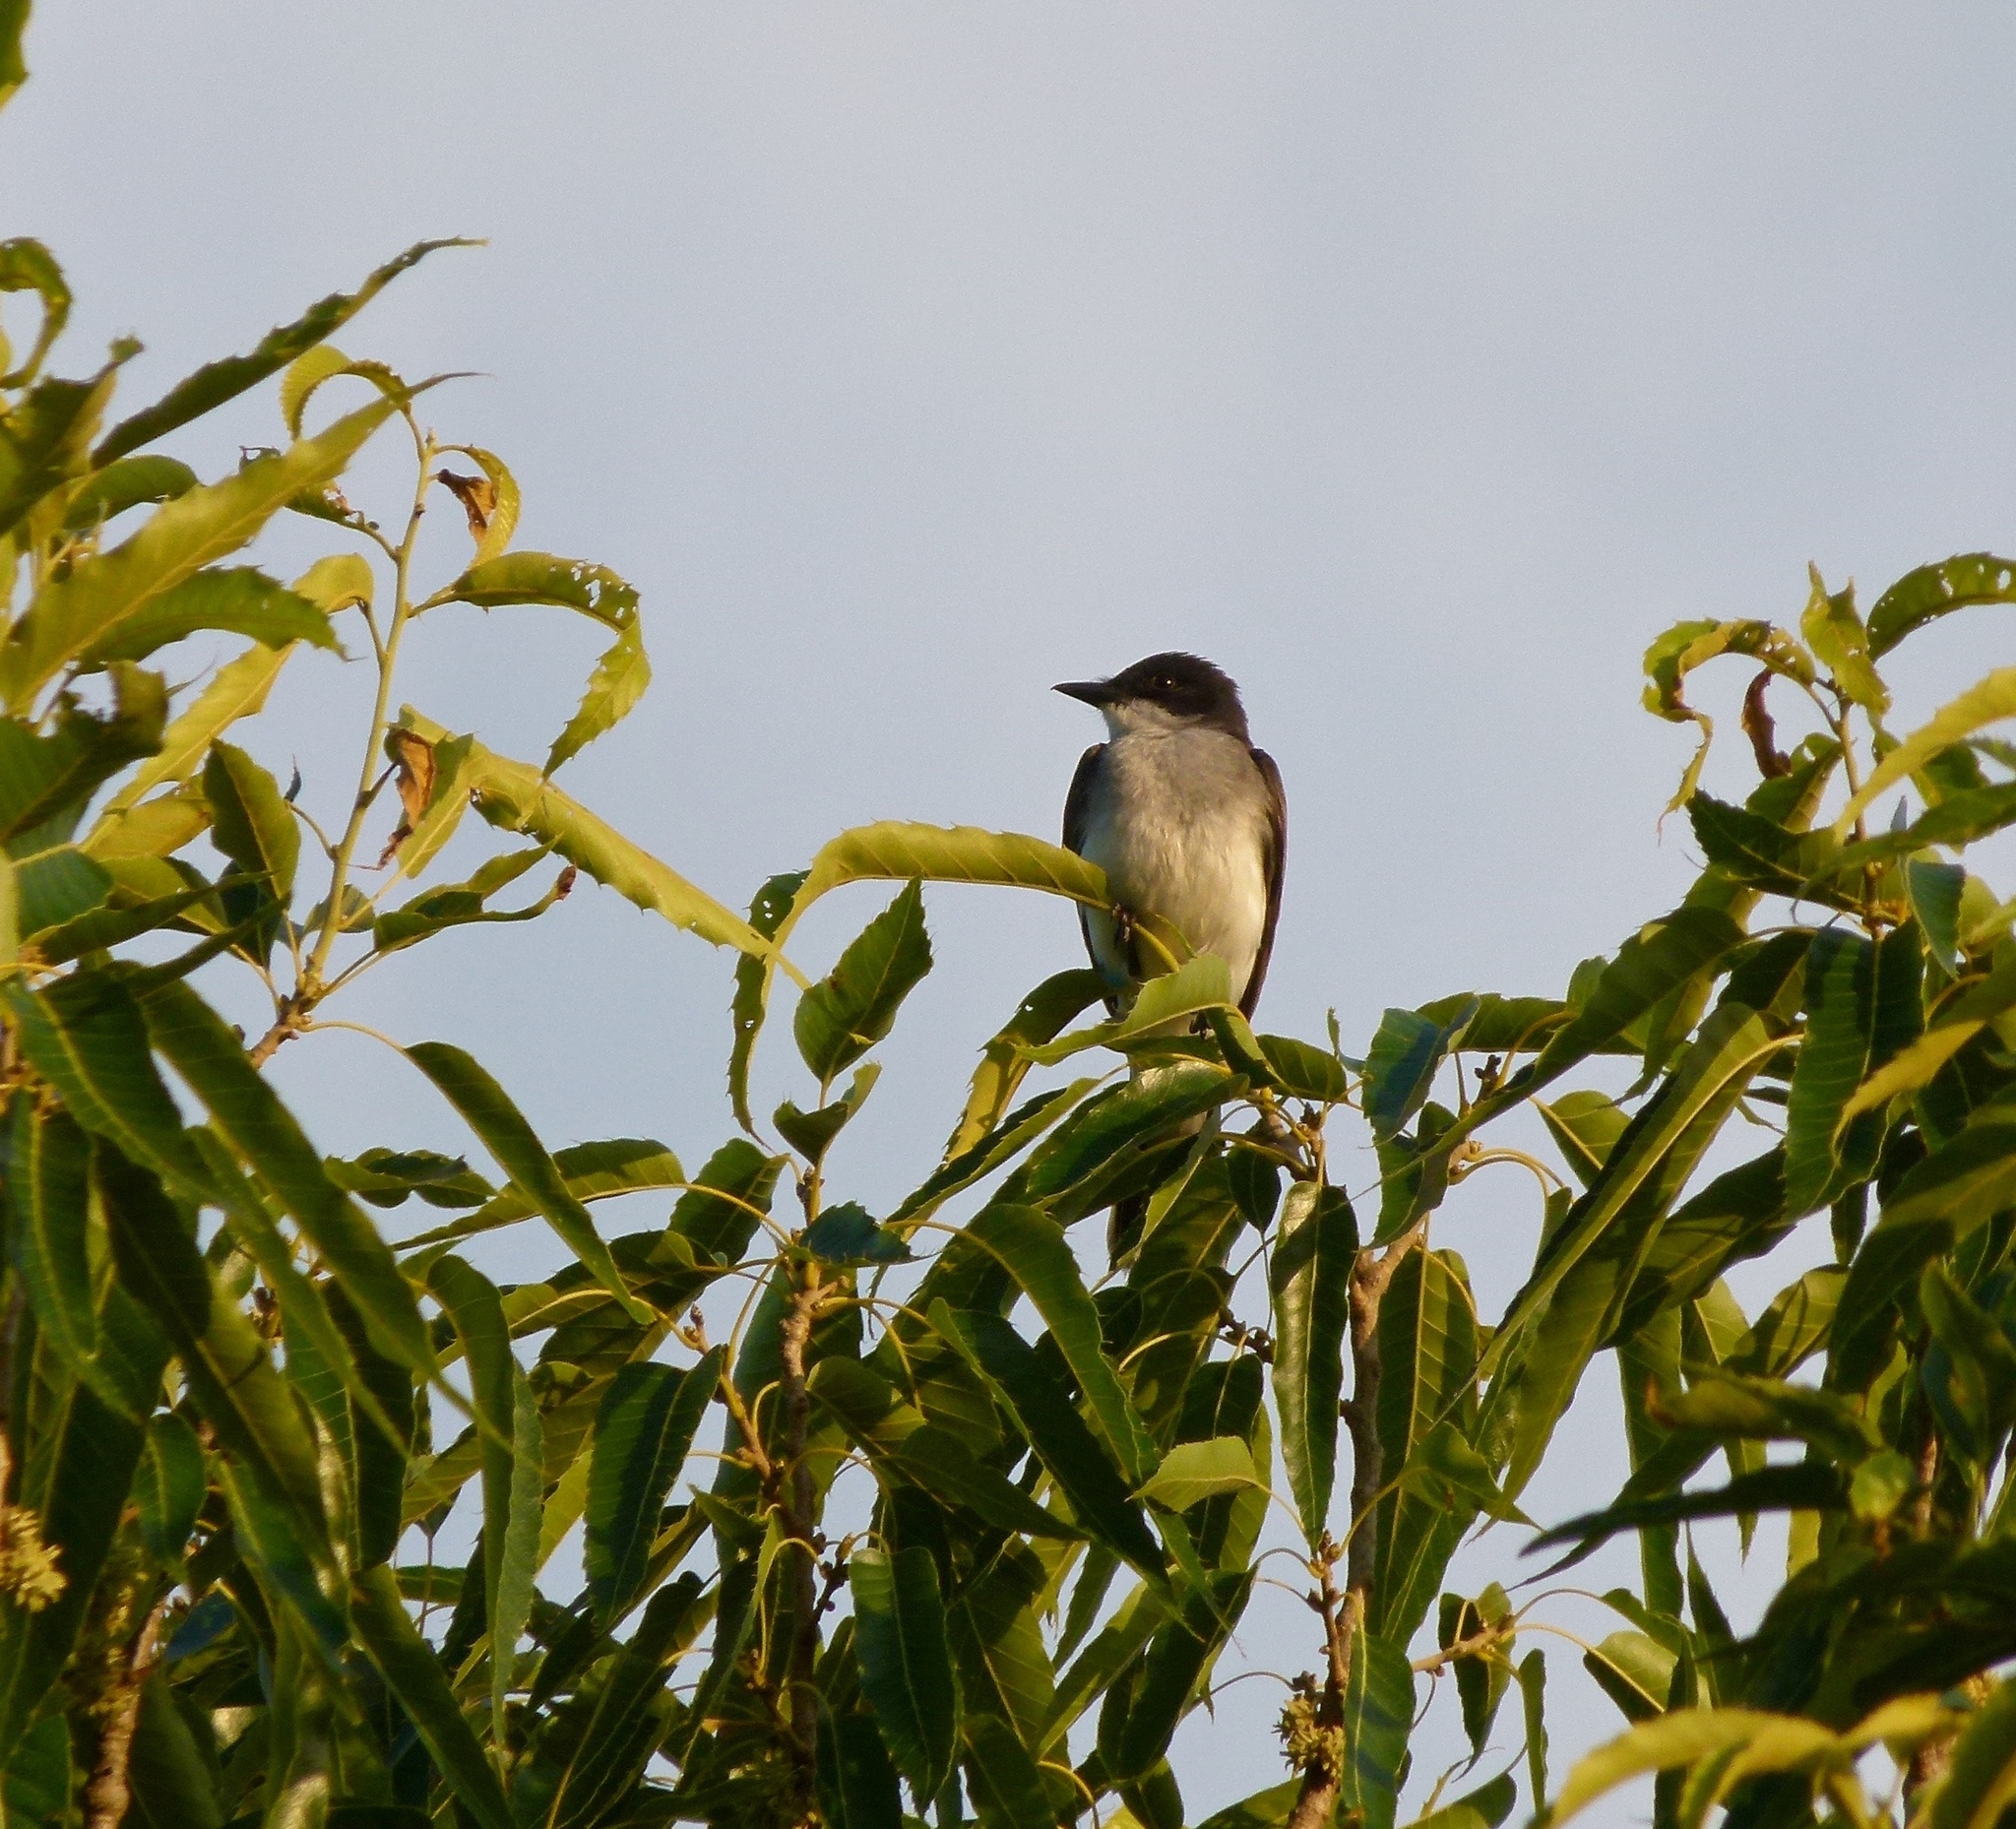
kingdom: Animalia
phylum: Chordata
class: Aves
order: Passeriformes
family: Tyrannidae
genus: Tyrannus
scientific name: Tyrannus tyrannus
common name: Eastern kingbird
